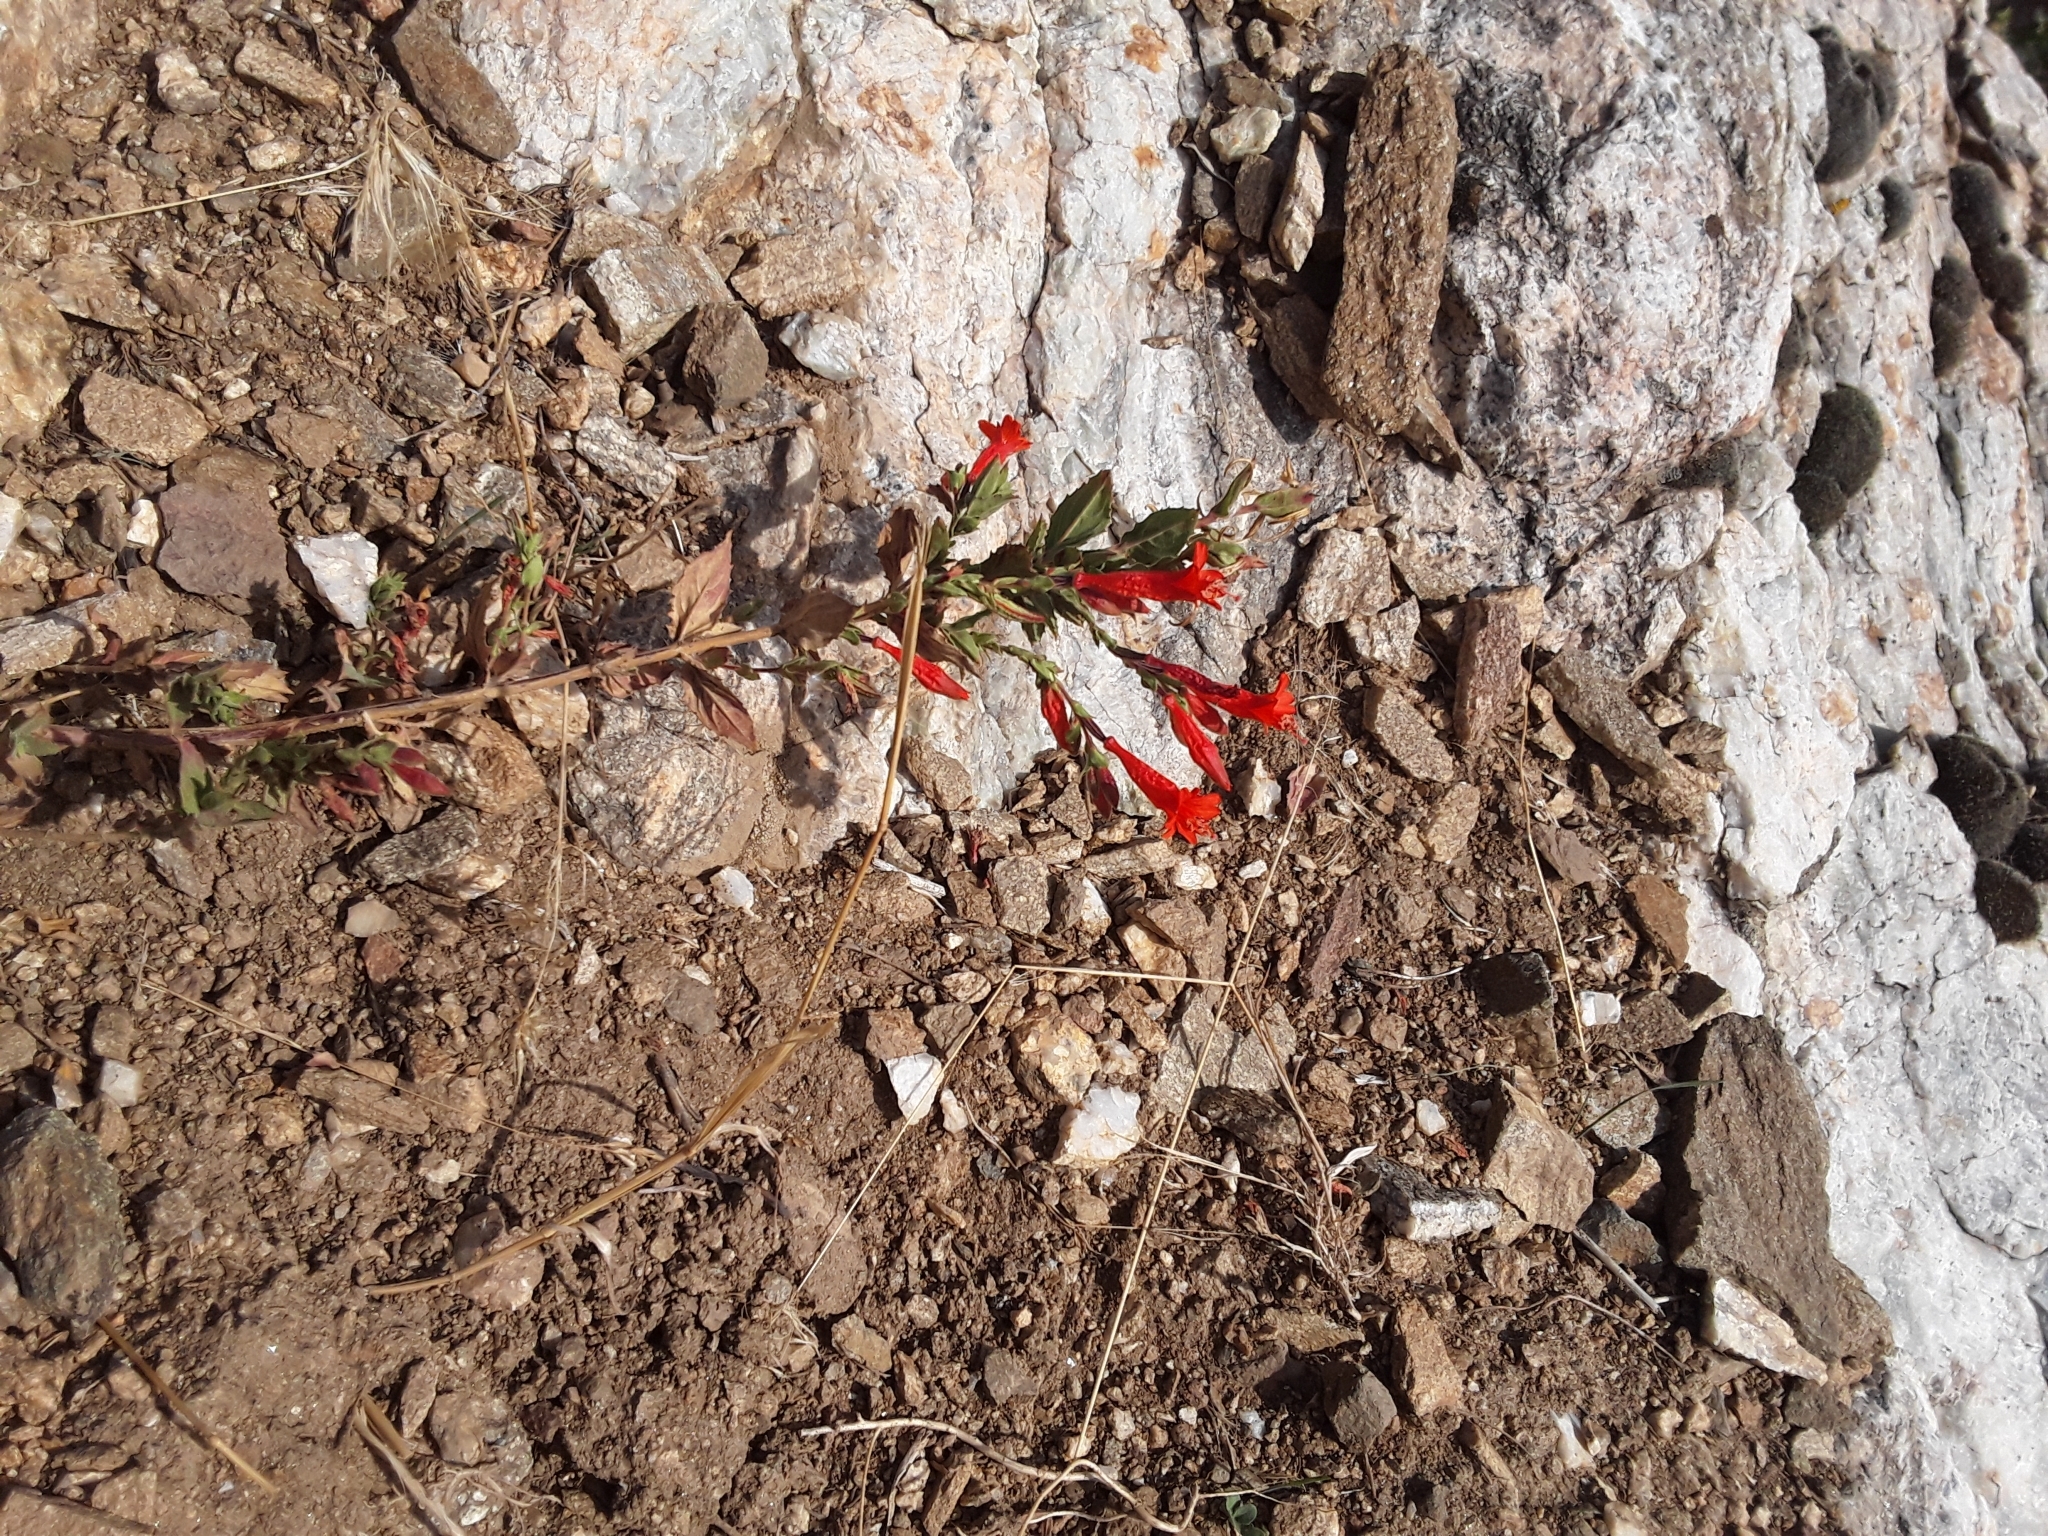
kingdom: Plantae
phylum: Tracheophyta
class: Magnoliopsida
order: Myrtales
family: Onagraceae
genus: Epilobium
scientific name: Epilobium canum
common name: California-fuchsia
